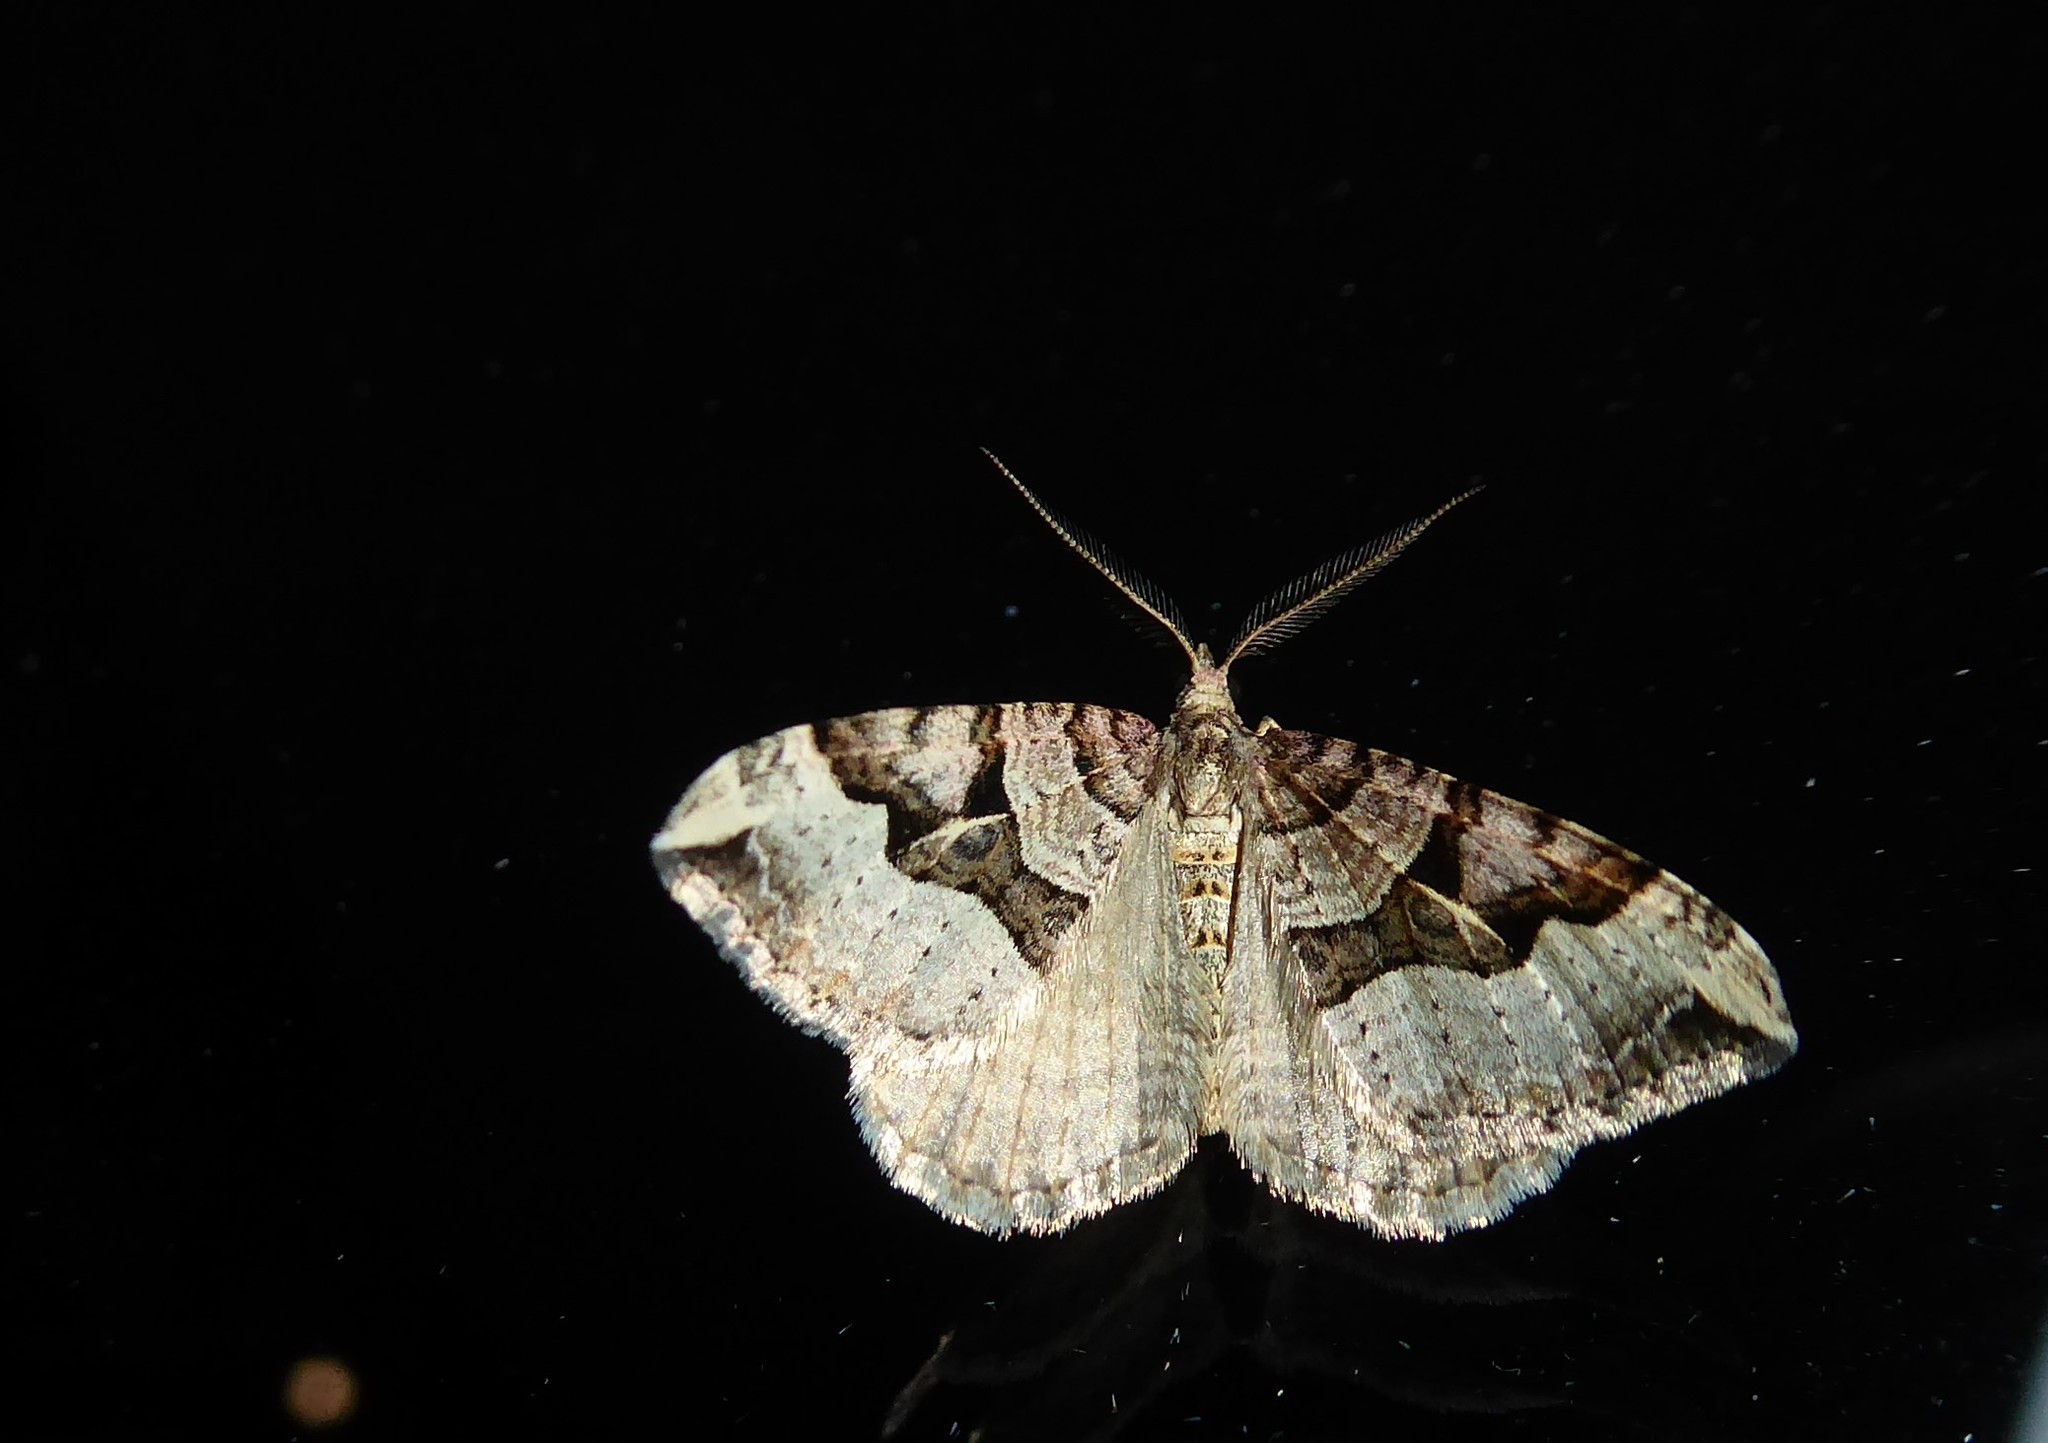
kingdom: Animalia
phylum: Arthropoda
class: Insecta
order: Lepidoptera
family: Geometridae
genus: Xanthorhoe
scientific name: Xanthorhoe semifissata
